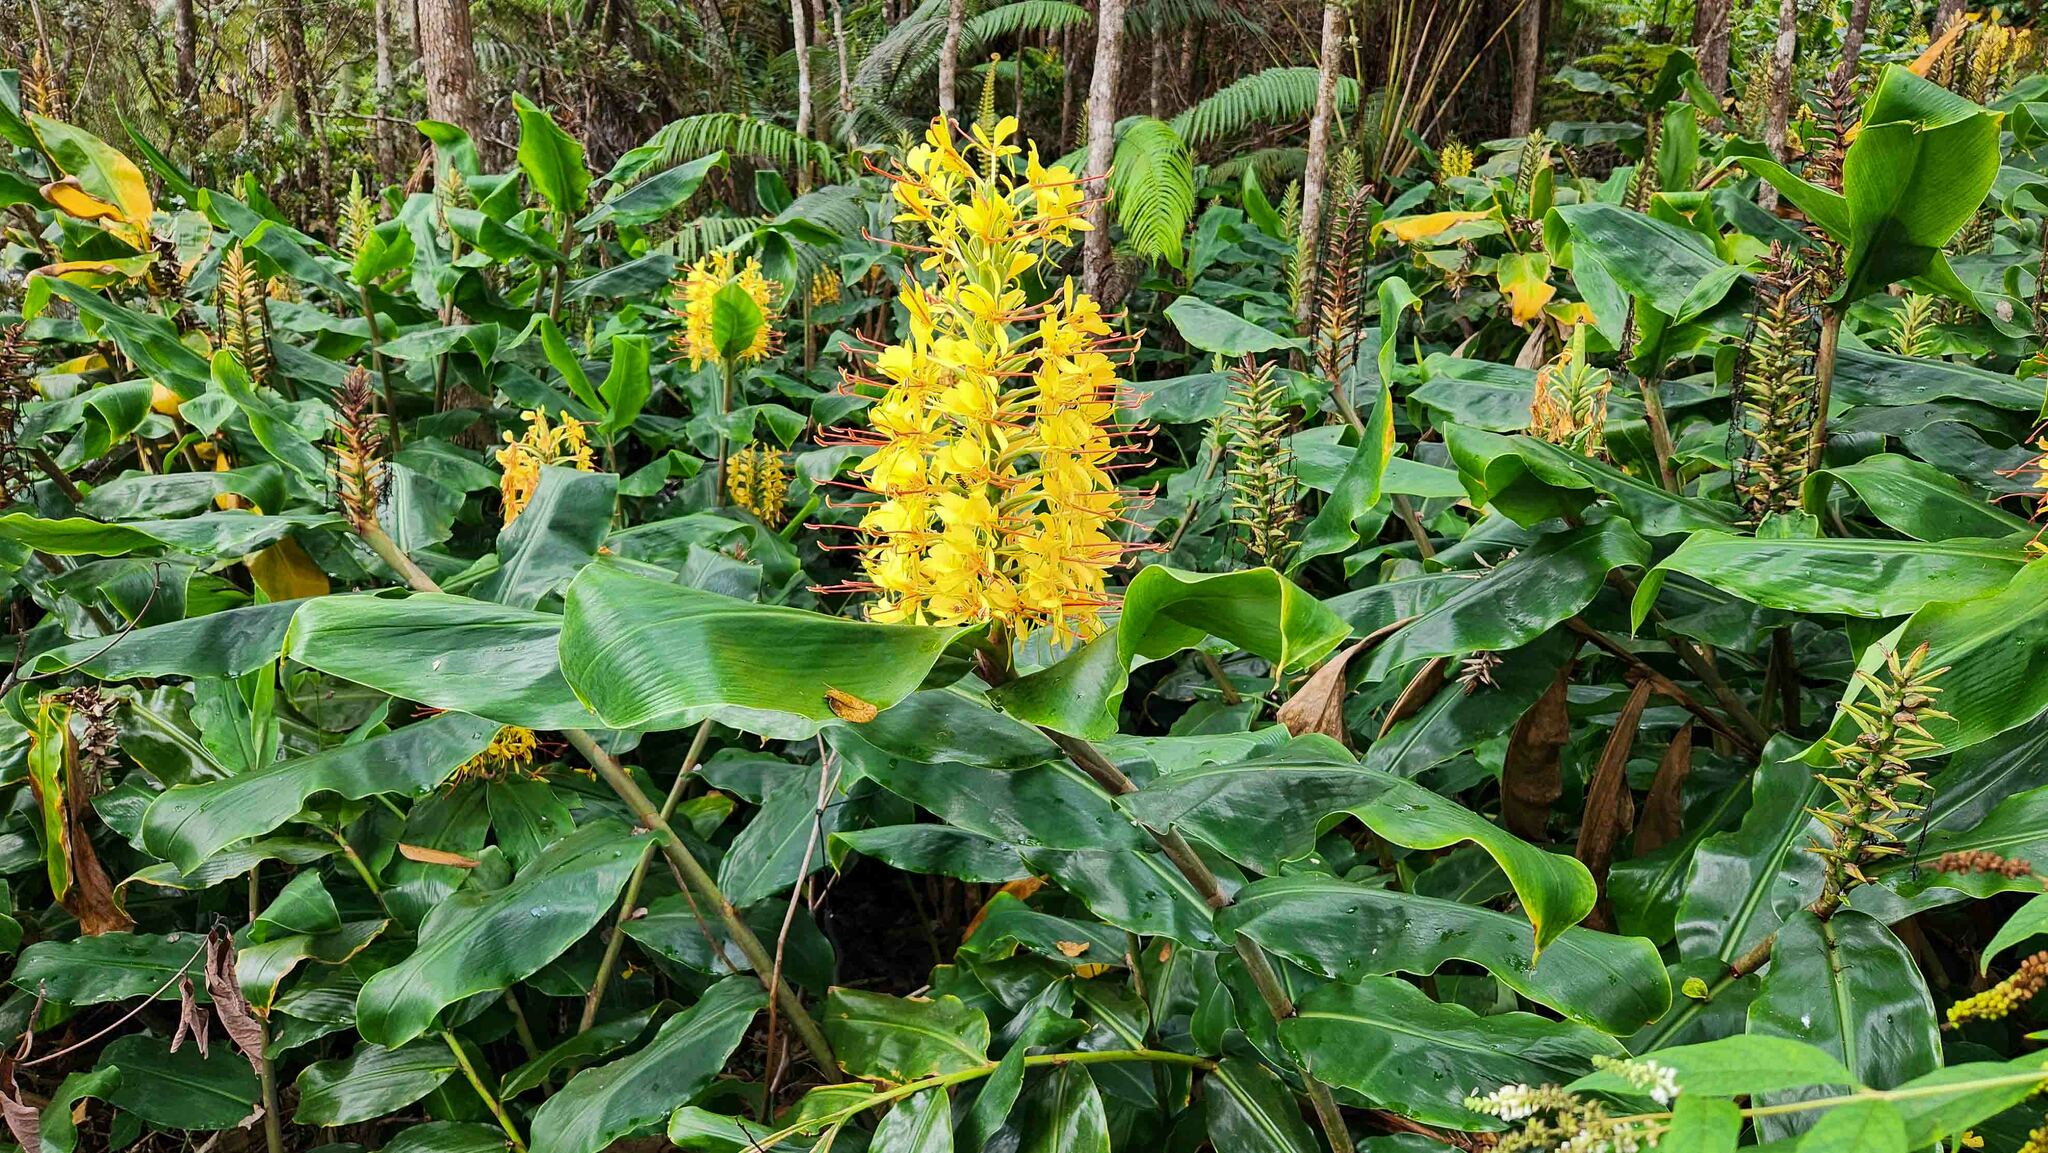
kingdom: Plantae
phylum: Tracheophyta
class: Liliopsida
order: Zingiberales
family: Zingiberaceae
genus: Hedychium
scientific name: Hedychium gardnerianum
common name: Himalayan ginger
